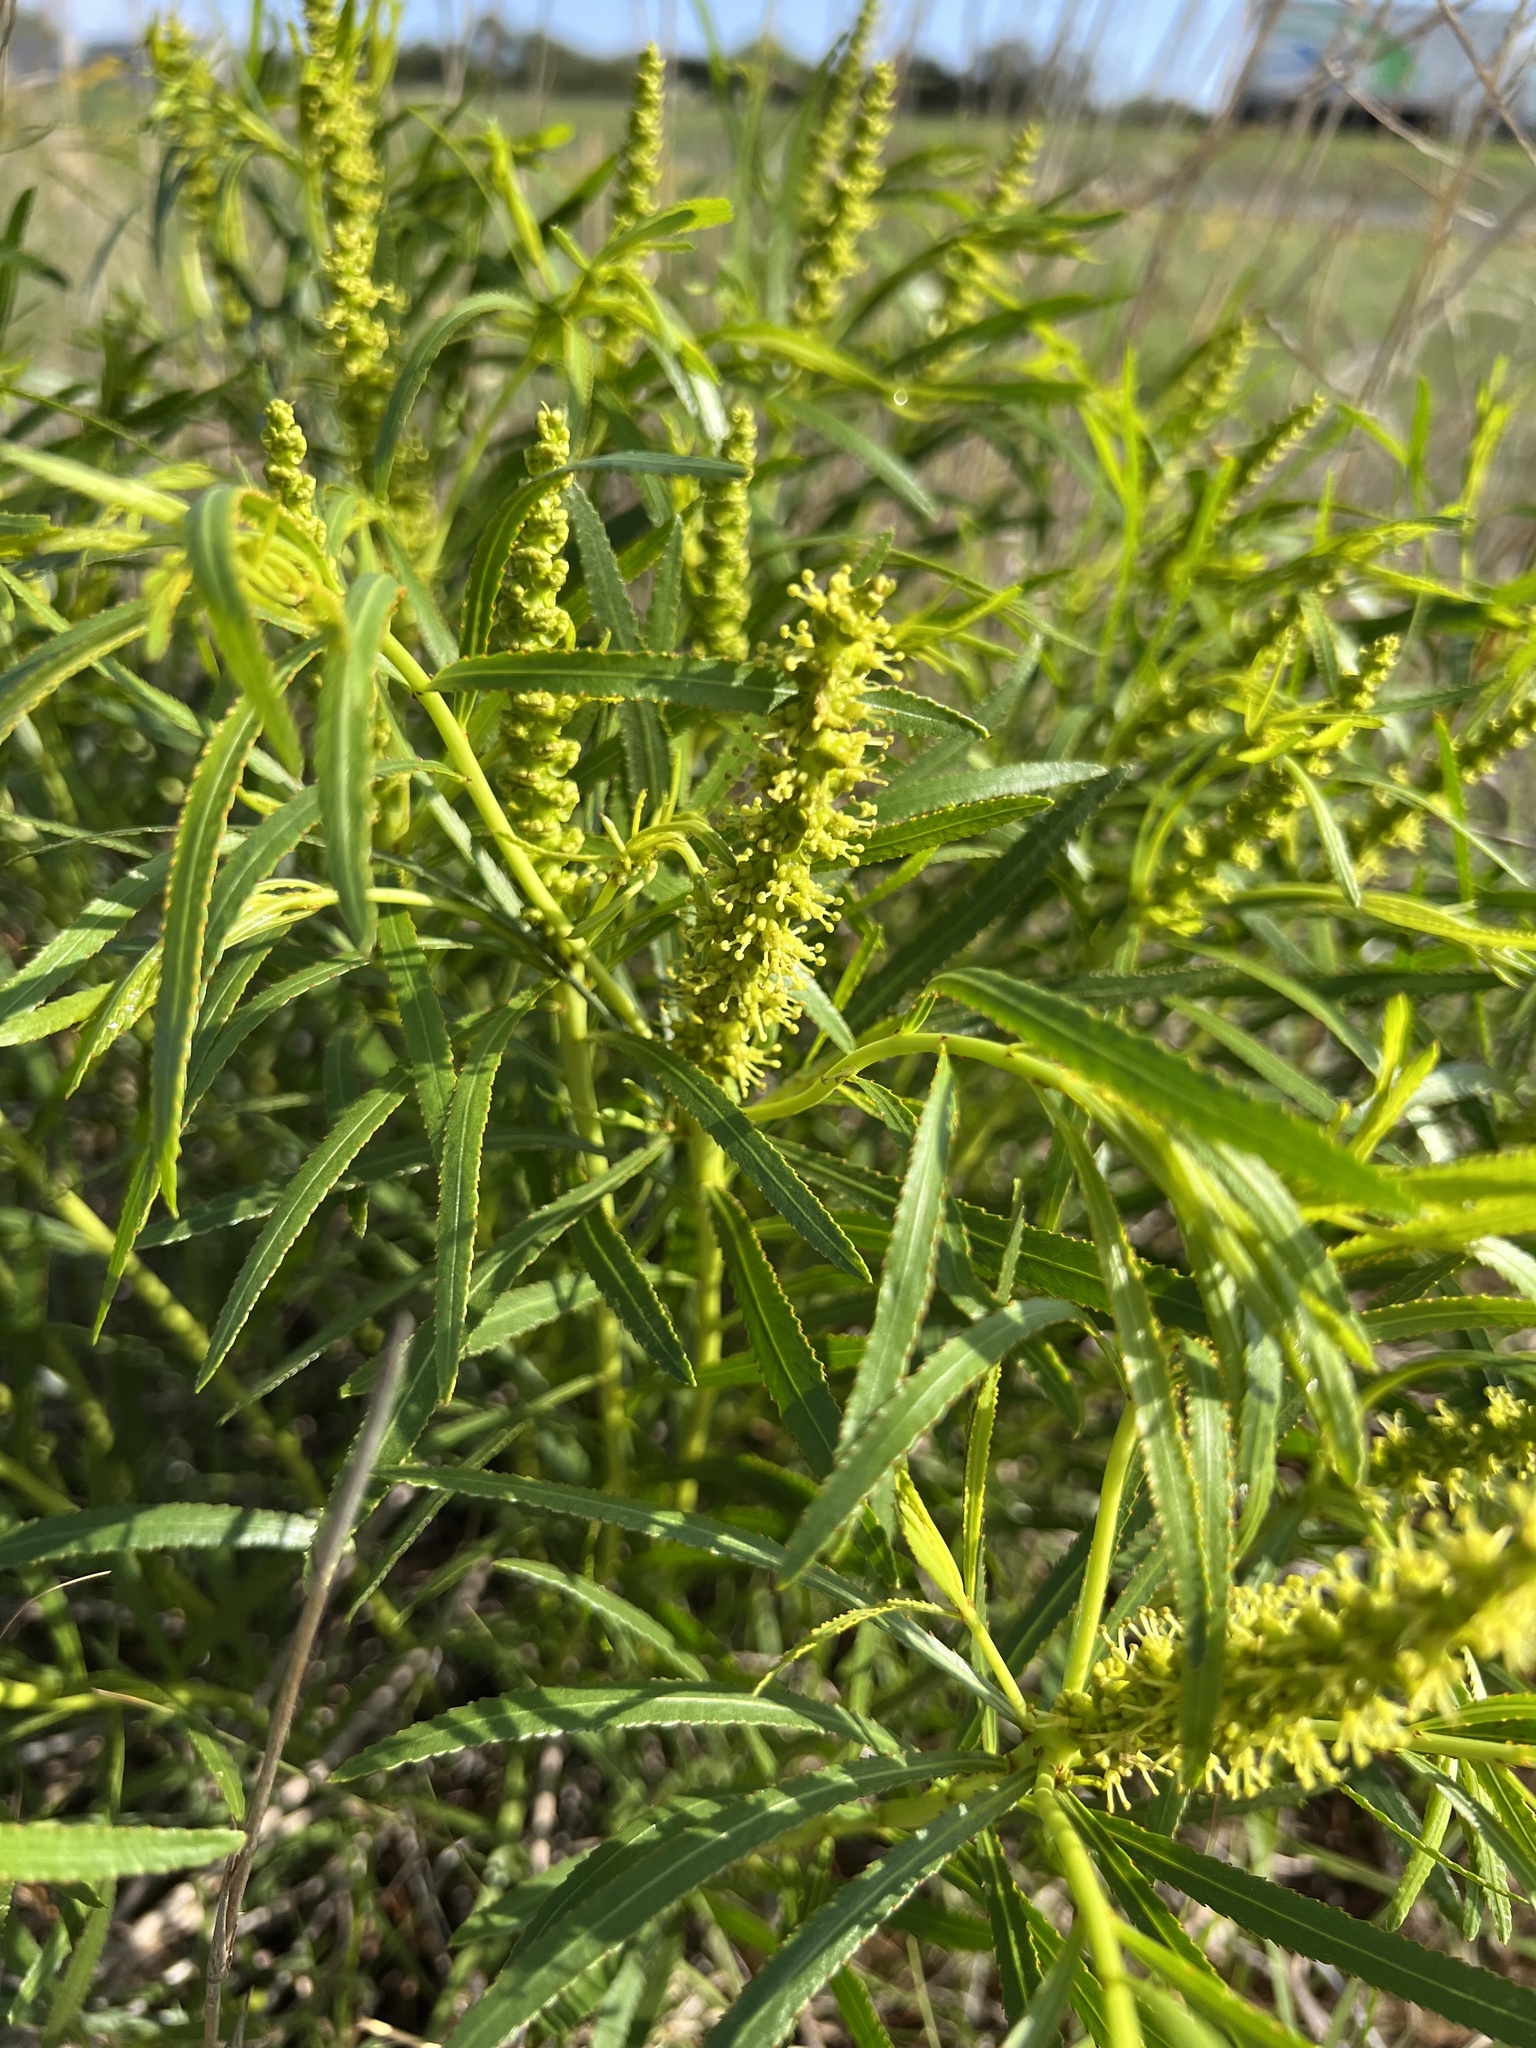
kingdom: Plantae
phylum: Tracheophyta
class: Magnoliopsida
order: Malpighiales
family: Euphorbiaceae
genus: Stillingia
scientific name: Stillingia texana
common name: Texas stillingia
